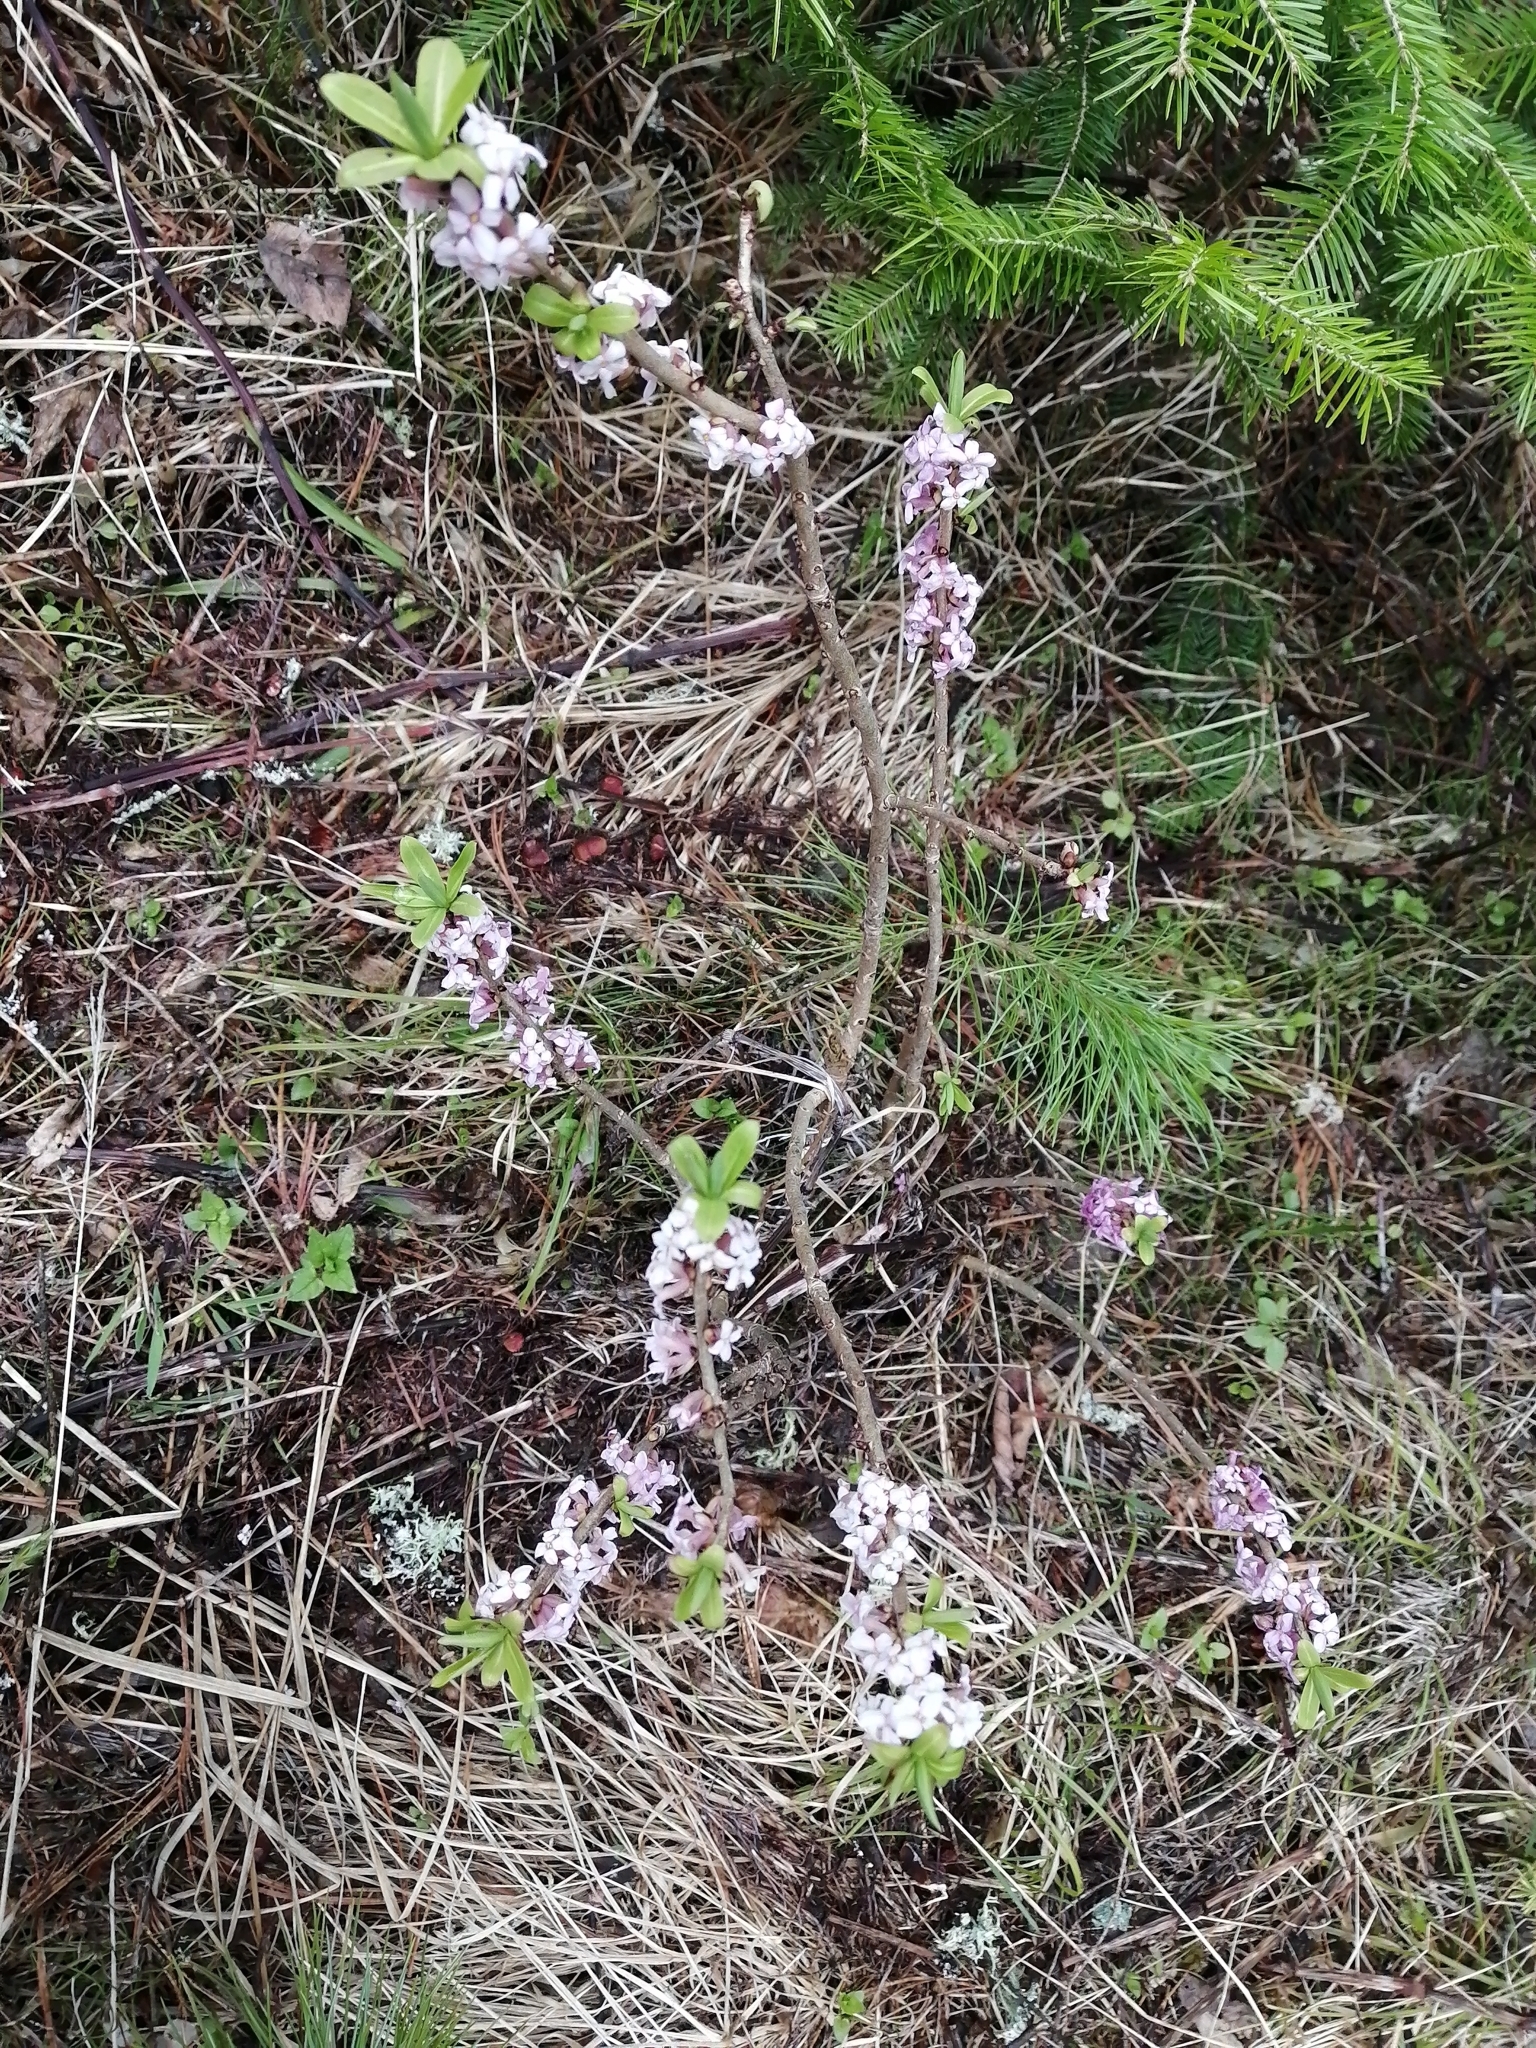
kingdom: Plantae
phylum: Tracheophyta
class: Magnoliopsida
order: Malvales
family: Thymelaeaceae
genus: Daphne
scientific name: Daphne mezereum
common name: Mezereon
